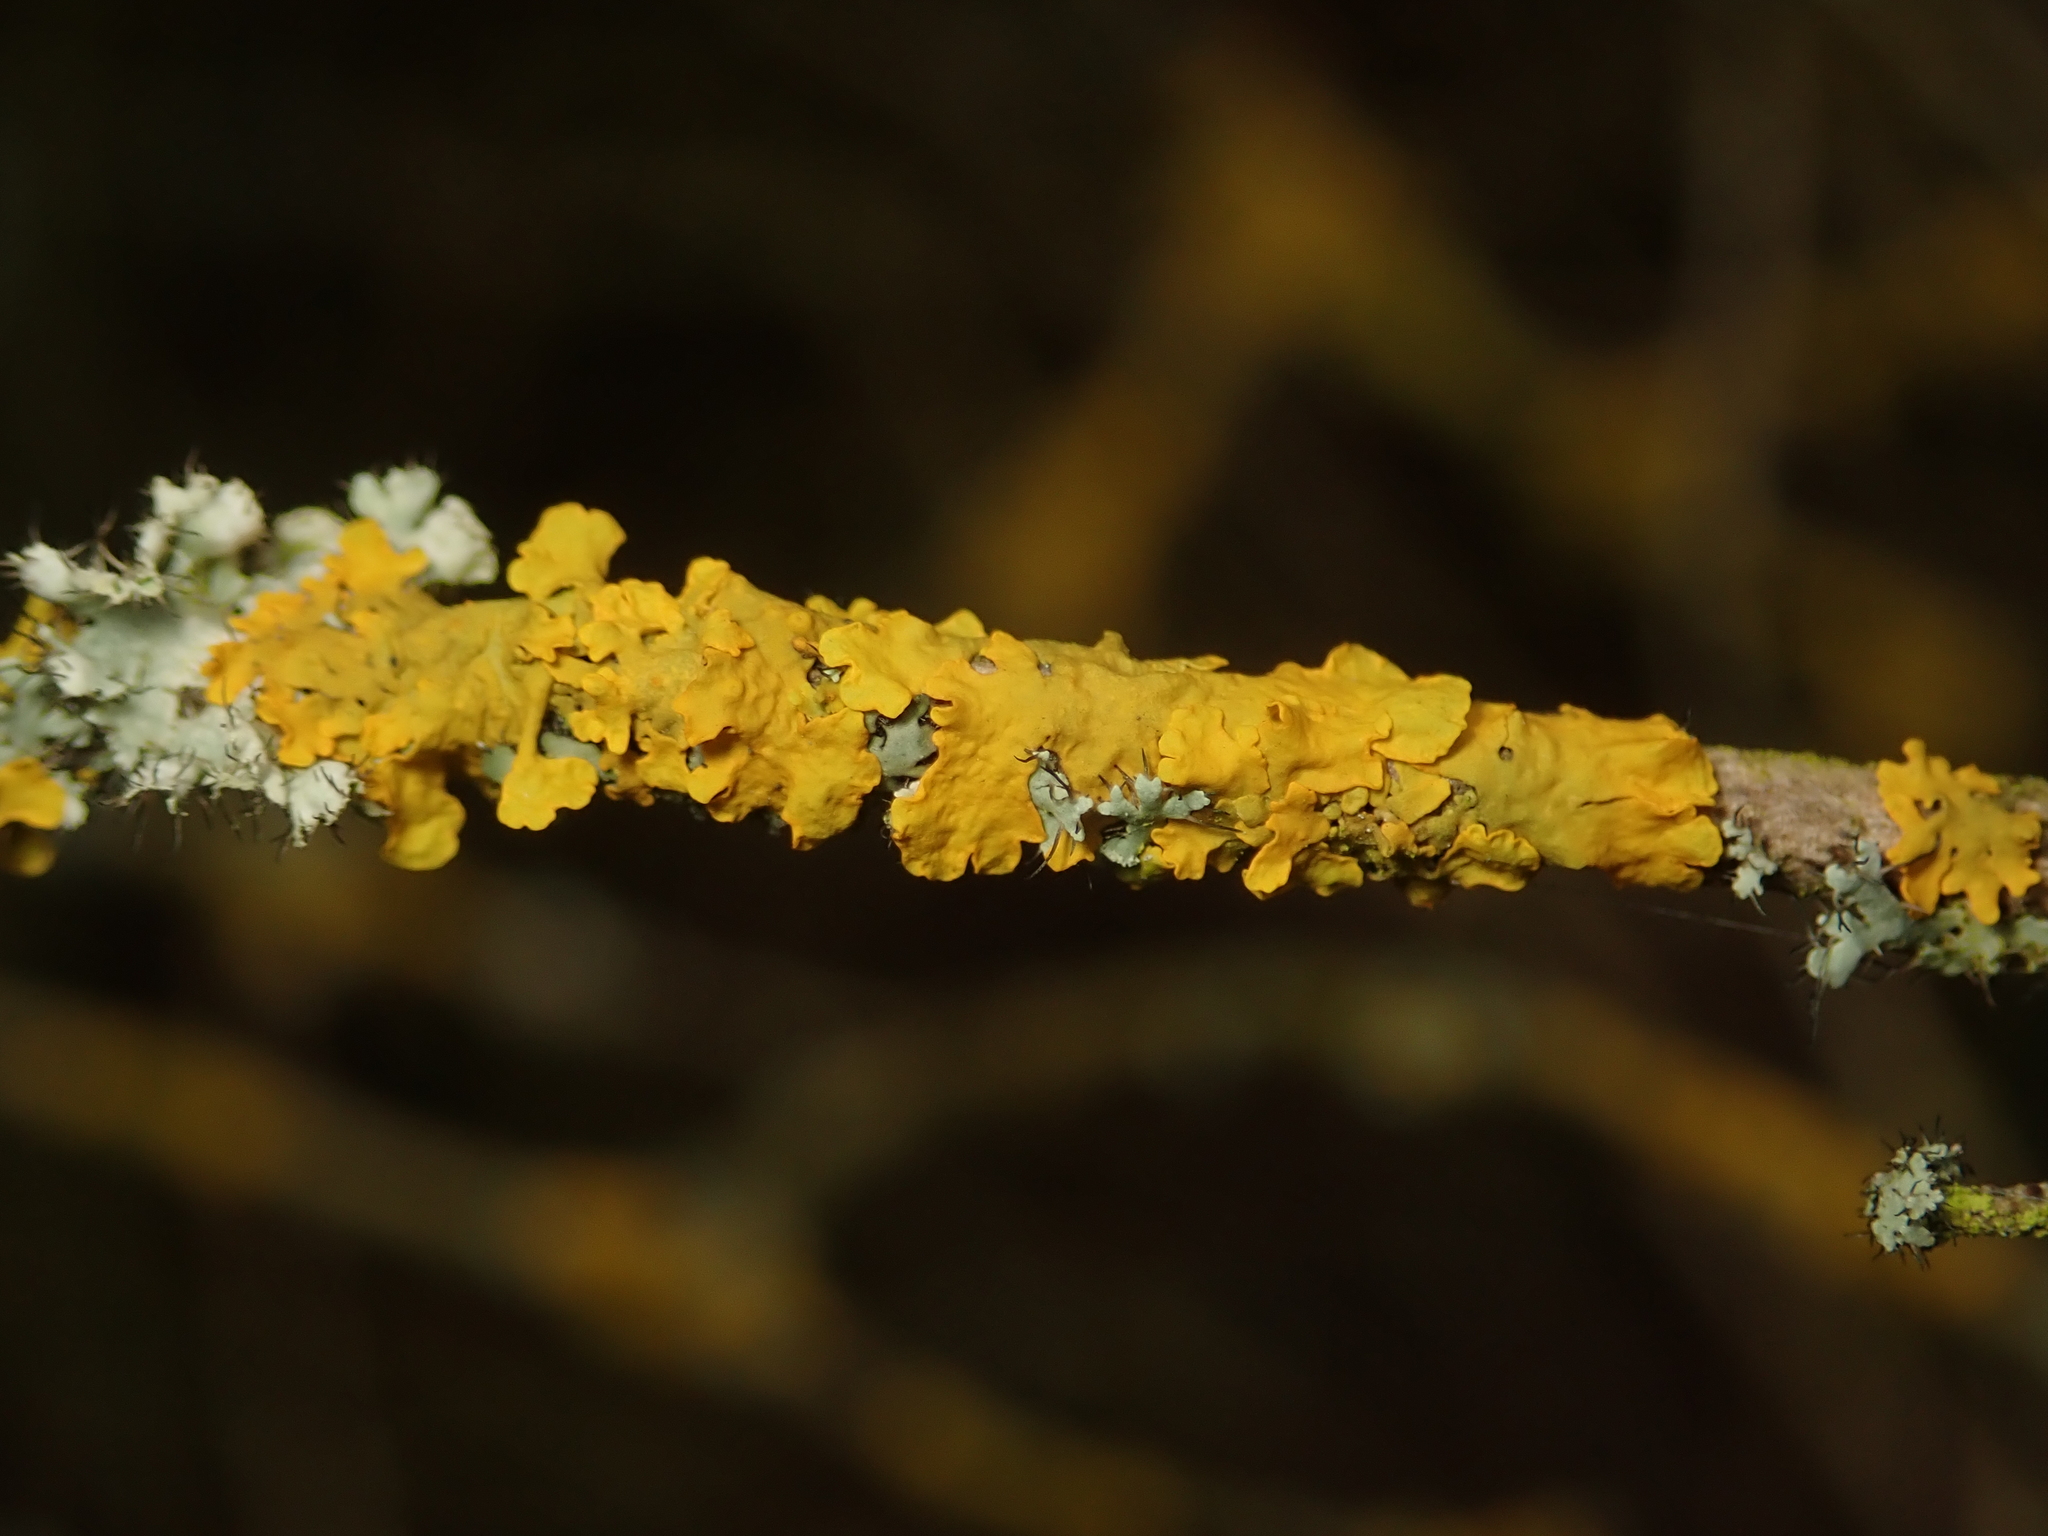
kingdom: Fungi
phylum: Ascomycota
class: Lecanoromycetes
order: Teloschistales
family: Teloschistaceae
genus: Xanthoria
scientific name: Xanthoria parietina
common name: Common orange lichen
